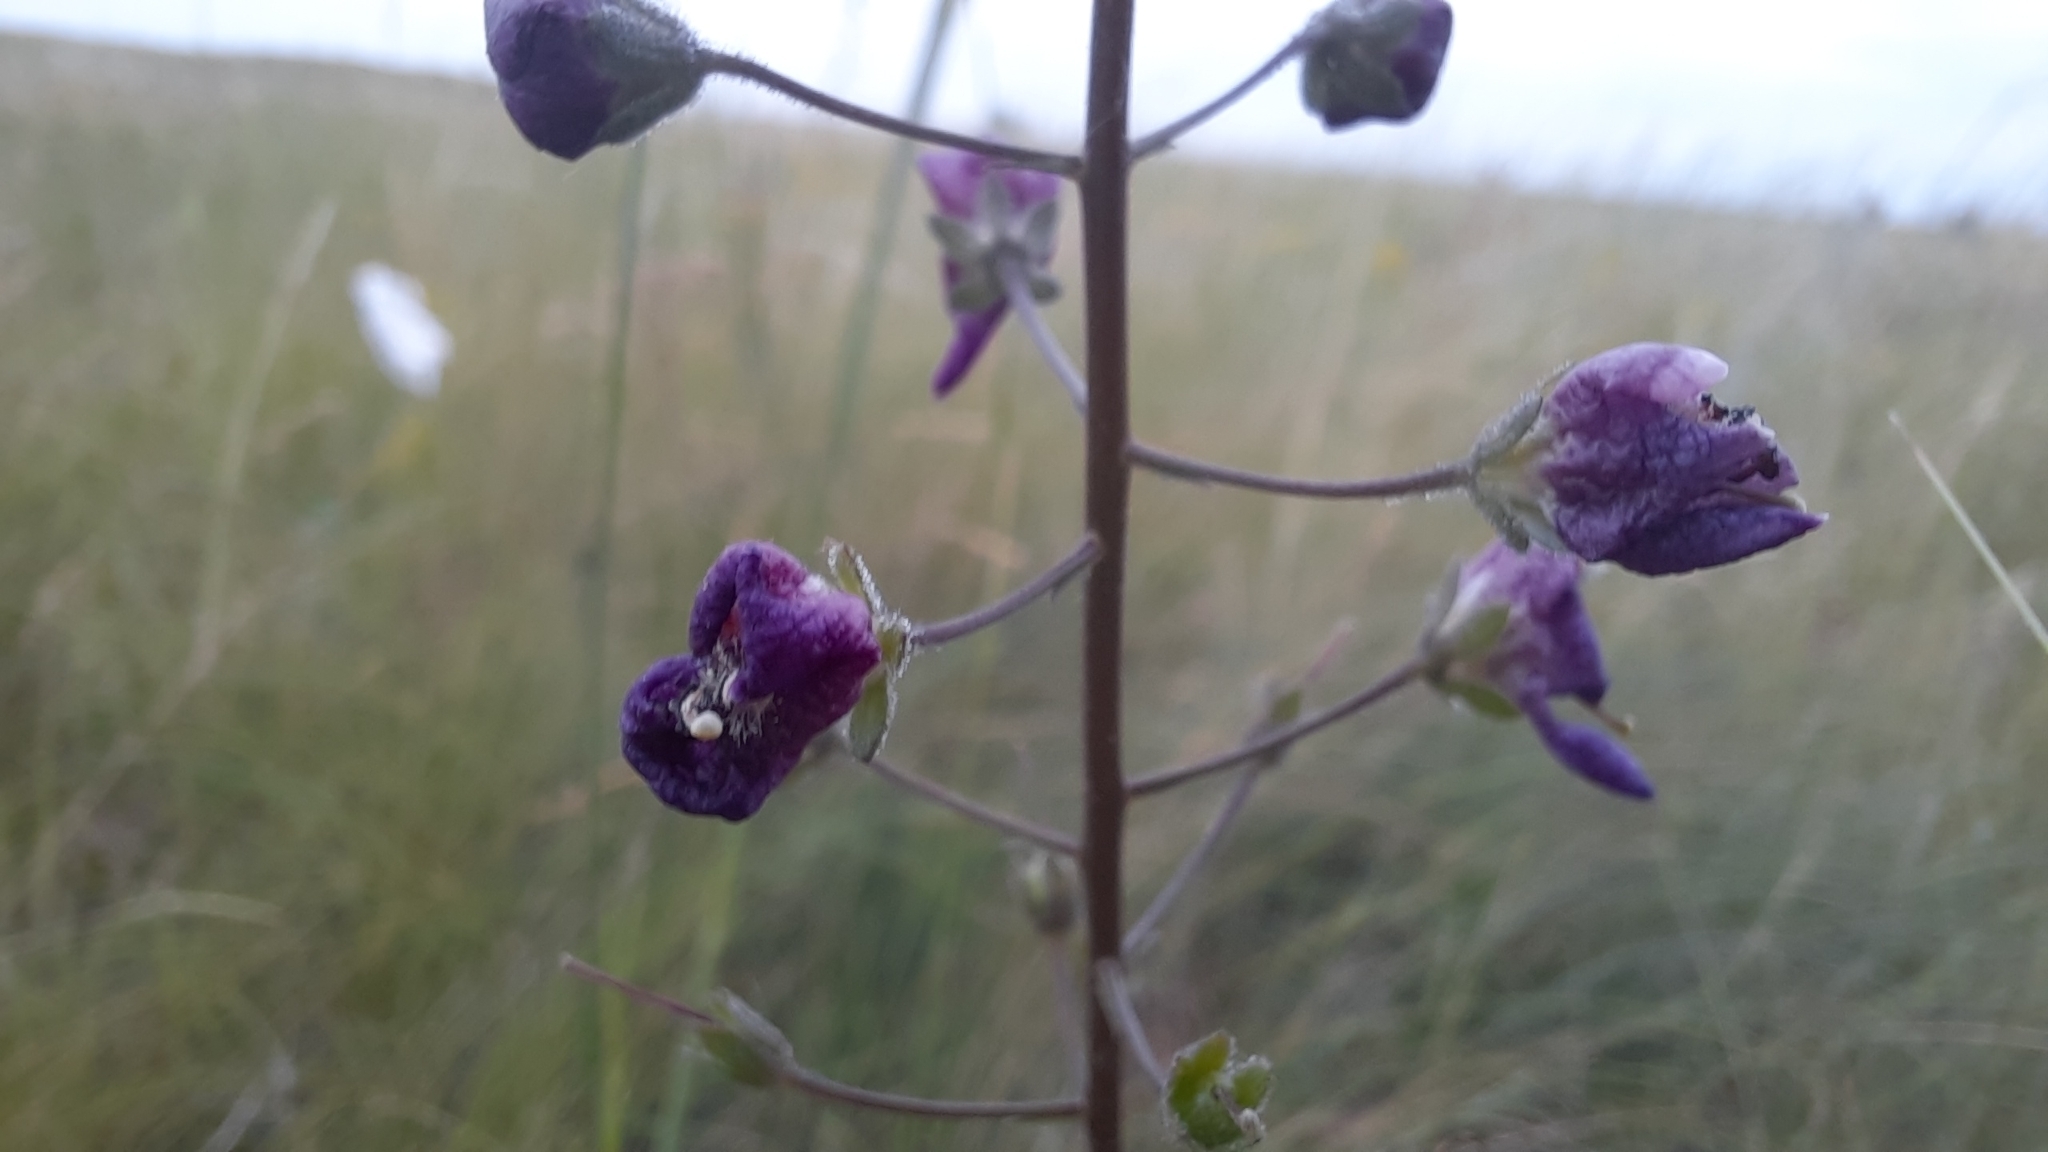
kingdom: Plantae
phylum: Tracheophyta
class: Magnoliopsida
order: Lamiales
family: Scrophulariaceae
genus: Verbascum
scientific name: Verbascum phoeniceum
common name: Purple mullein
